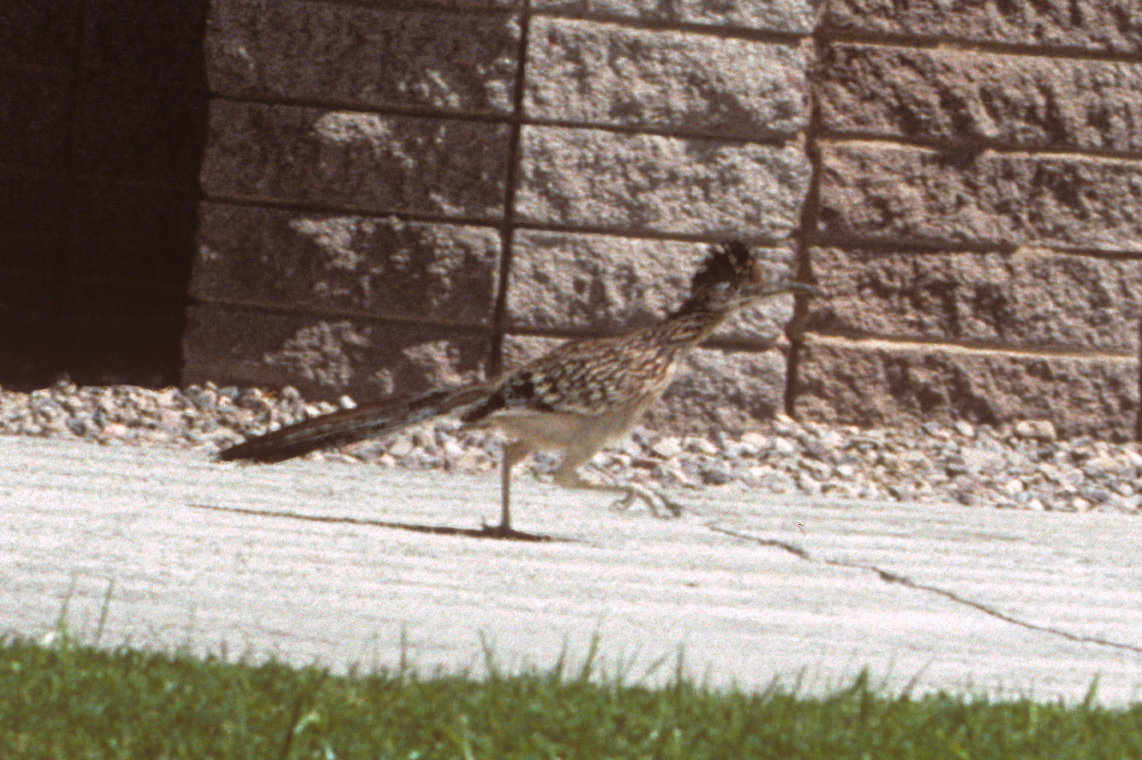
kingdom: Animalia
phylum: Chordata
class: Aves
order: Cuculiformes
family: Cuculidae
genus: Geococcyx
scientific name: Geococcyx californianus
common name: Greater roadrunner
